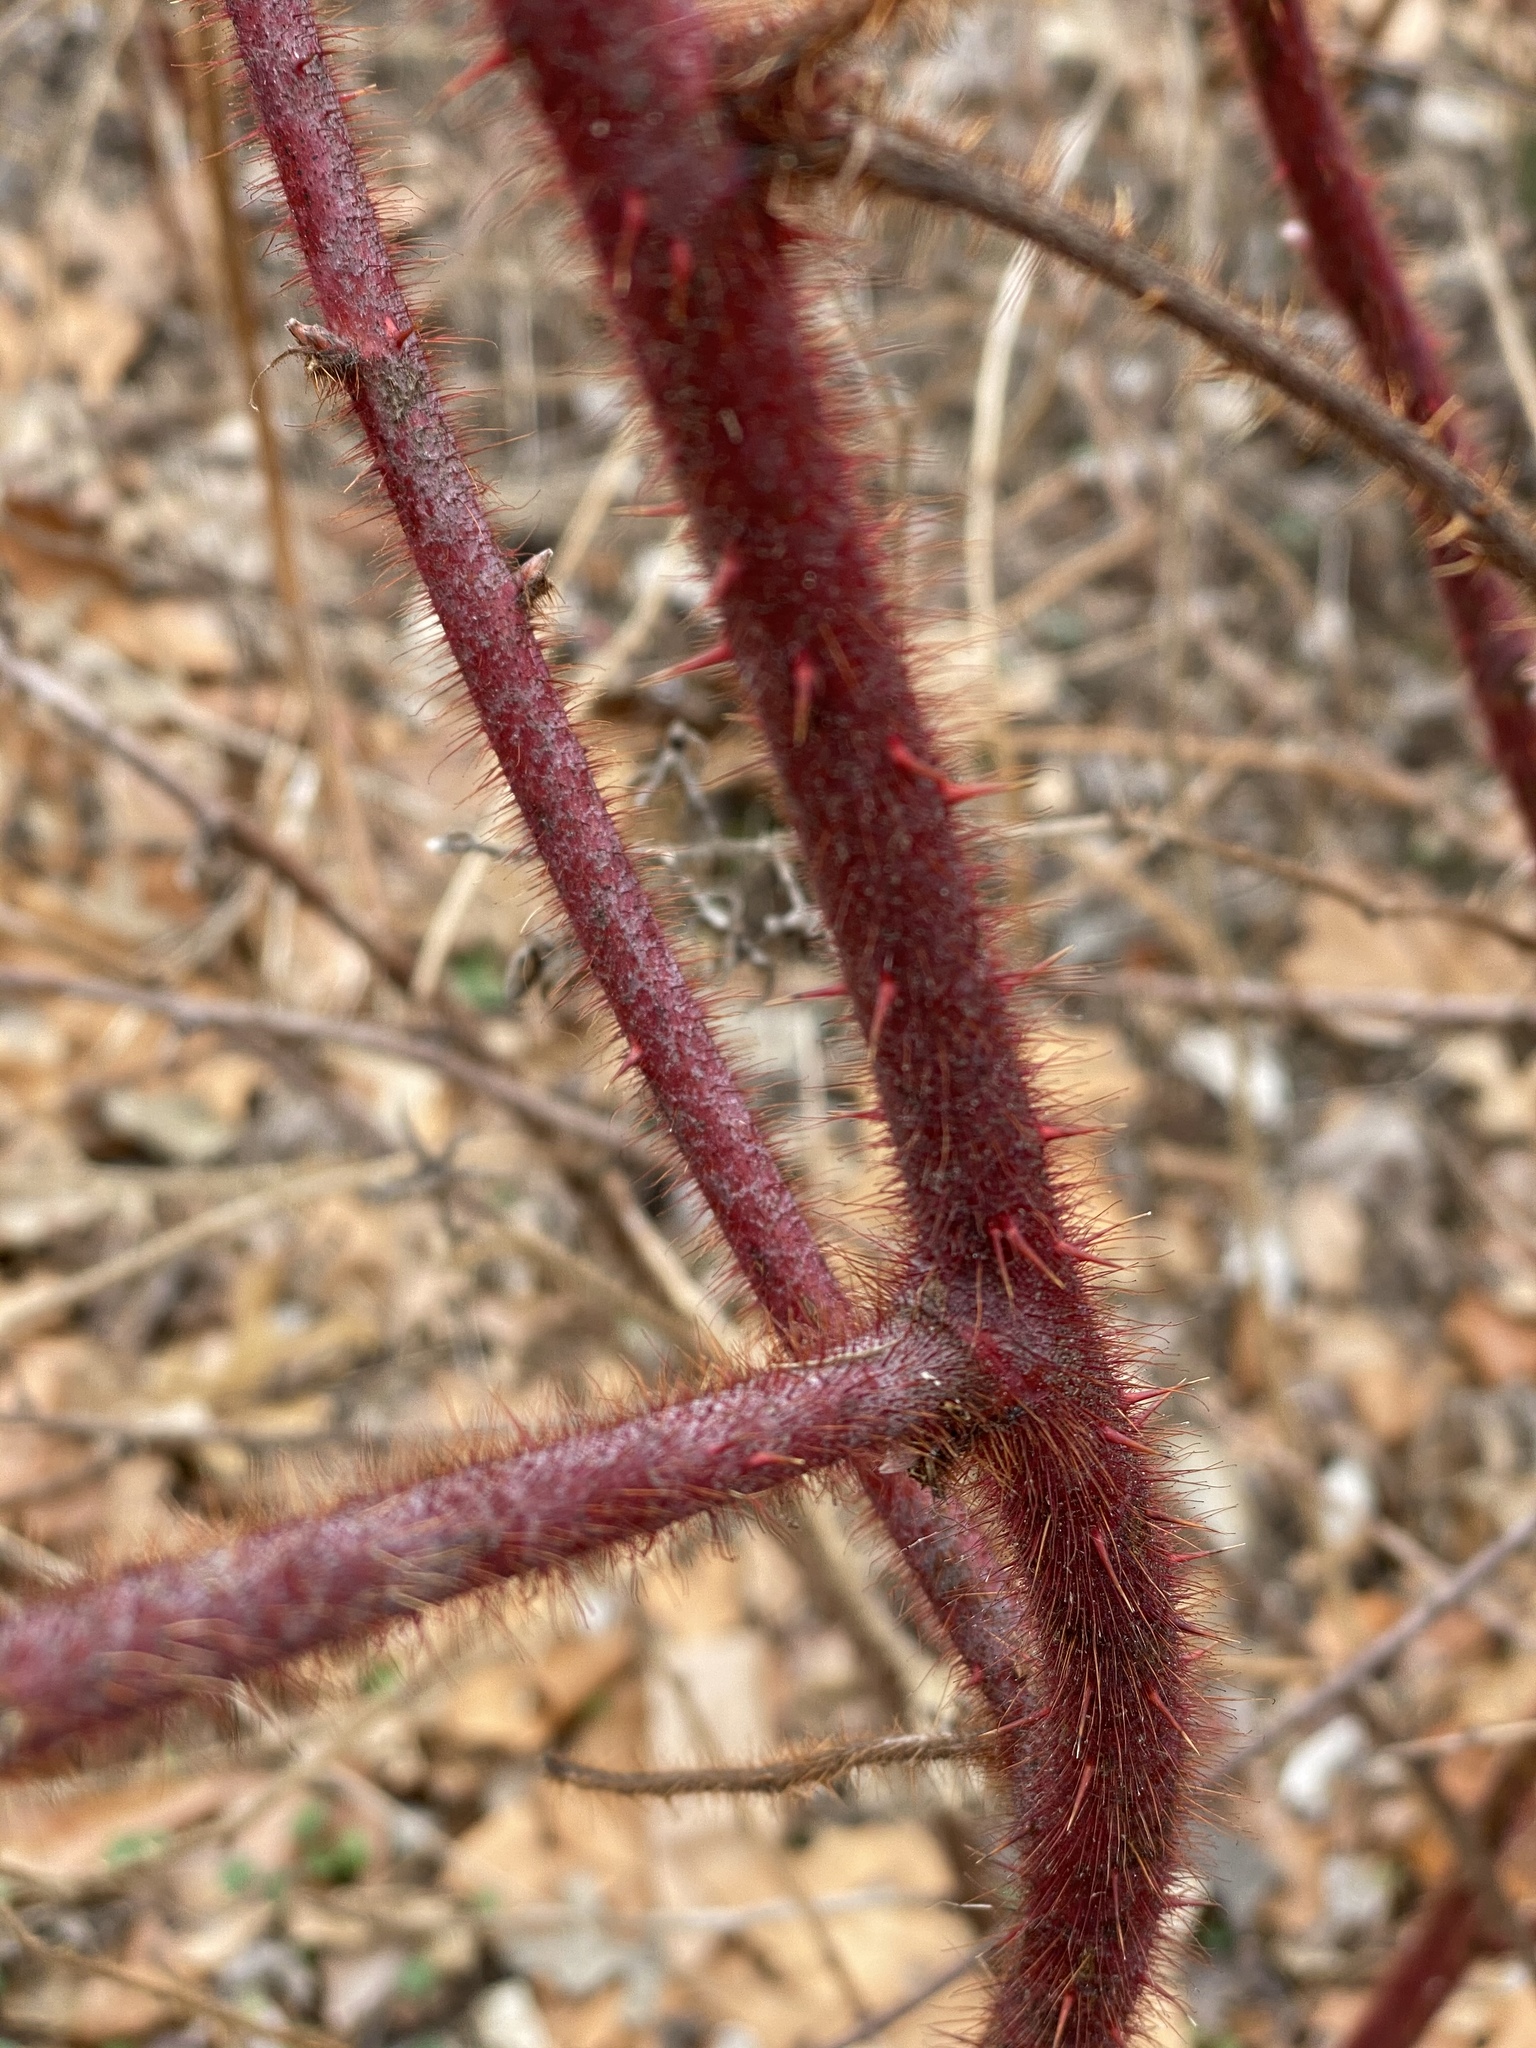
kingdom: Plantae
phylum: Tracheophyta
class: Magnoliopsida
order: Rosales
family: Rosaceae
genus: Rubus
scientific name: Rubus phoenicolasius
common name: Japanese wineberry
